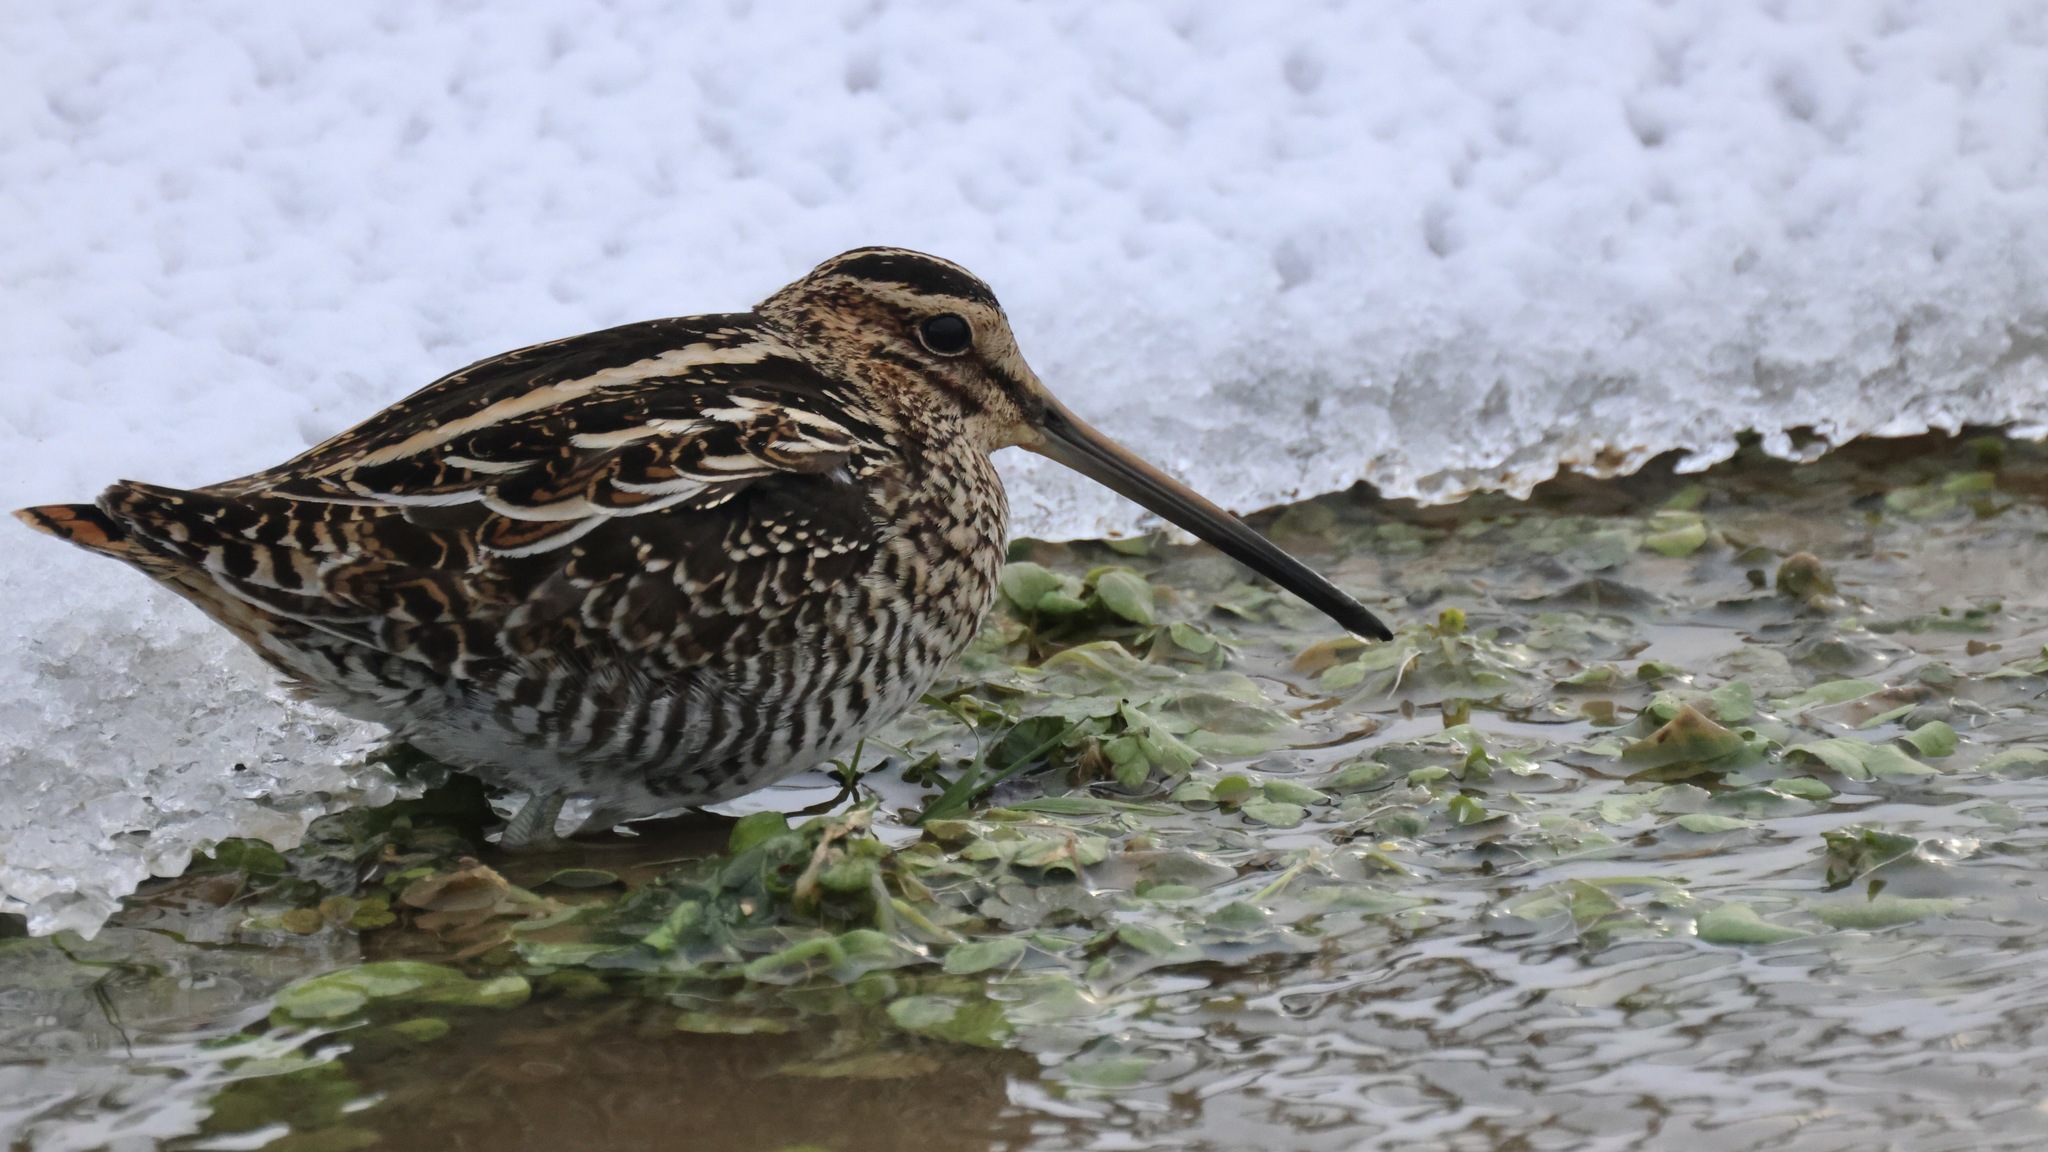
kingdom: Animalia
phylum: Chordata
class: Aves
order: Charadriiformes
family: Scolopacidae
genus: Gallinago
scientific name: Gallinago delicata
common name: Wilson's snipe
